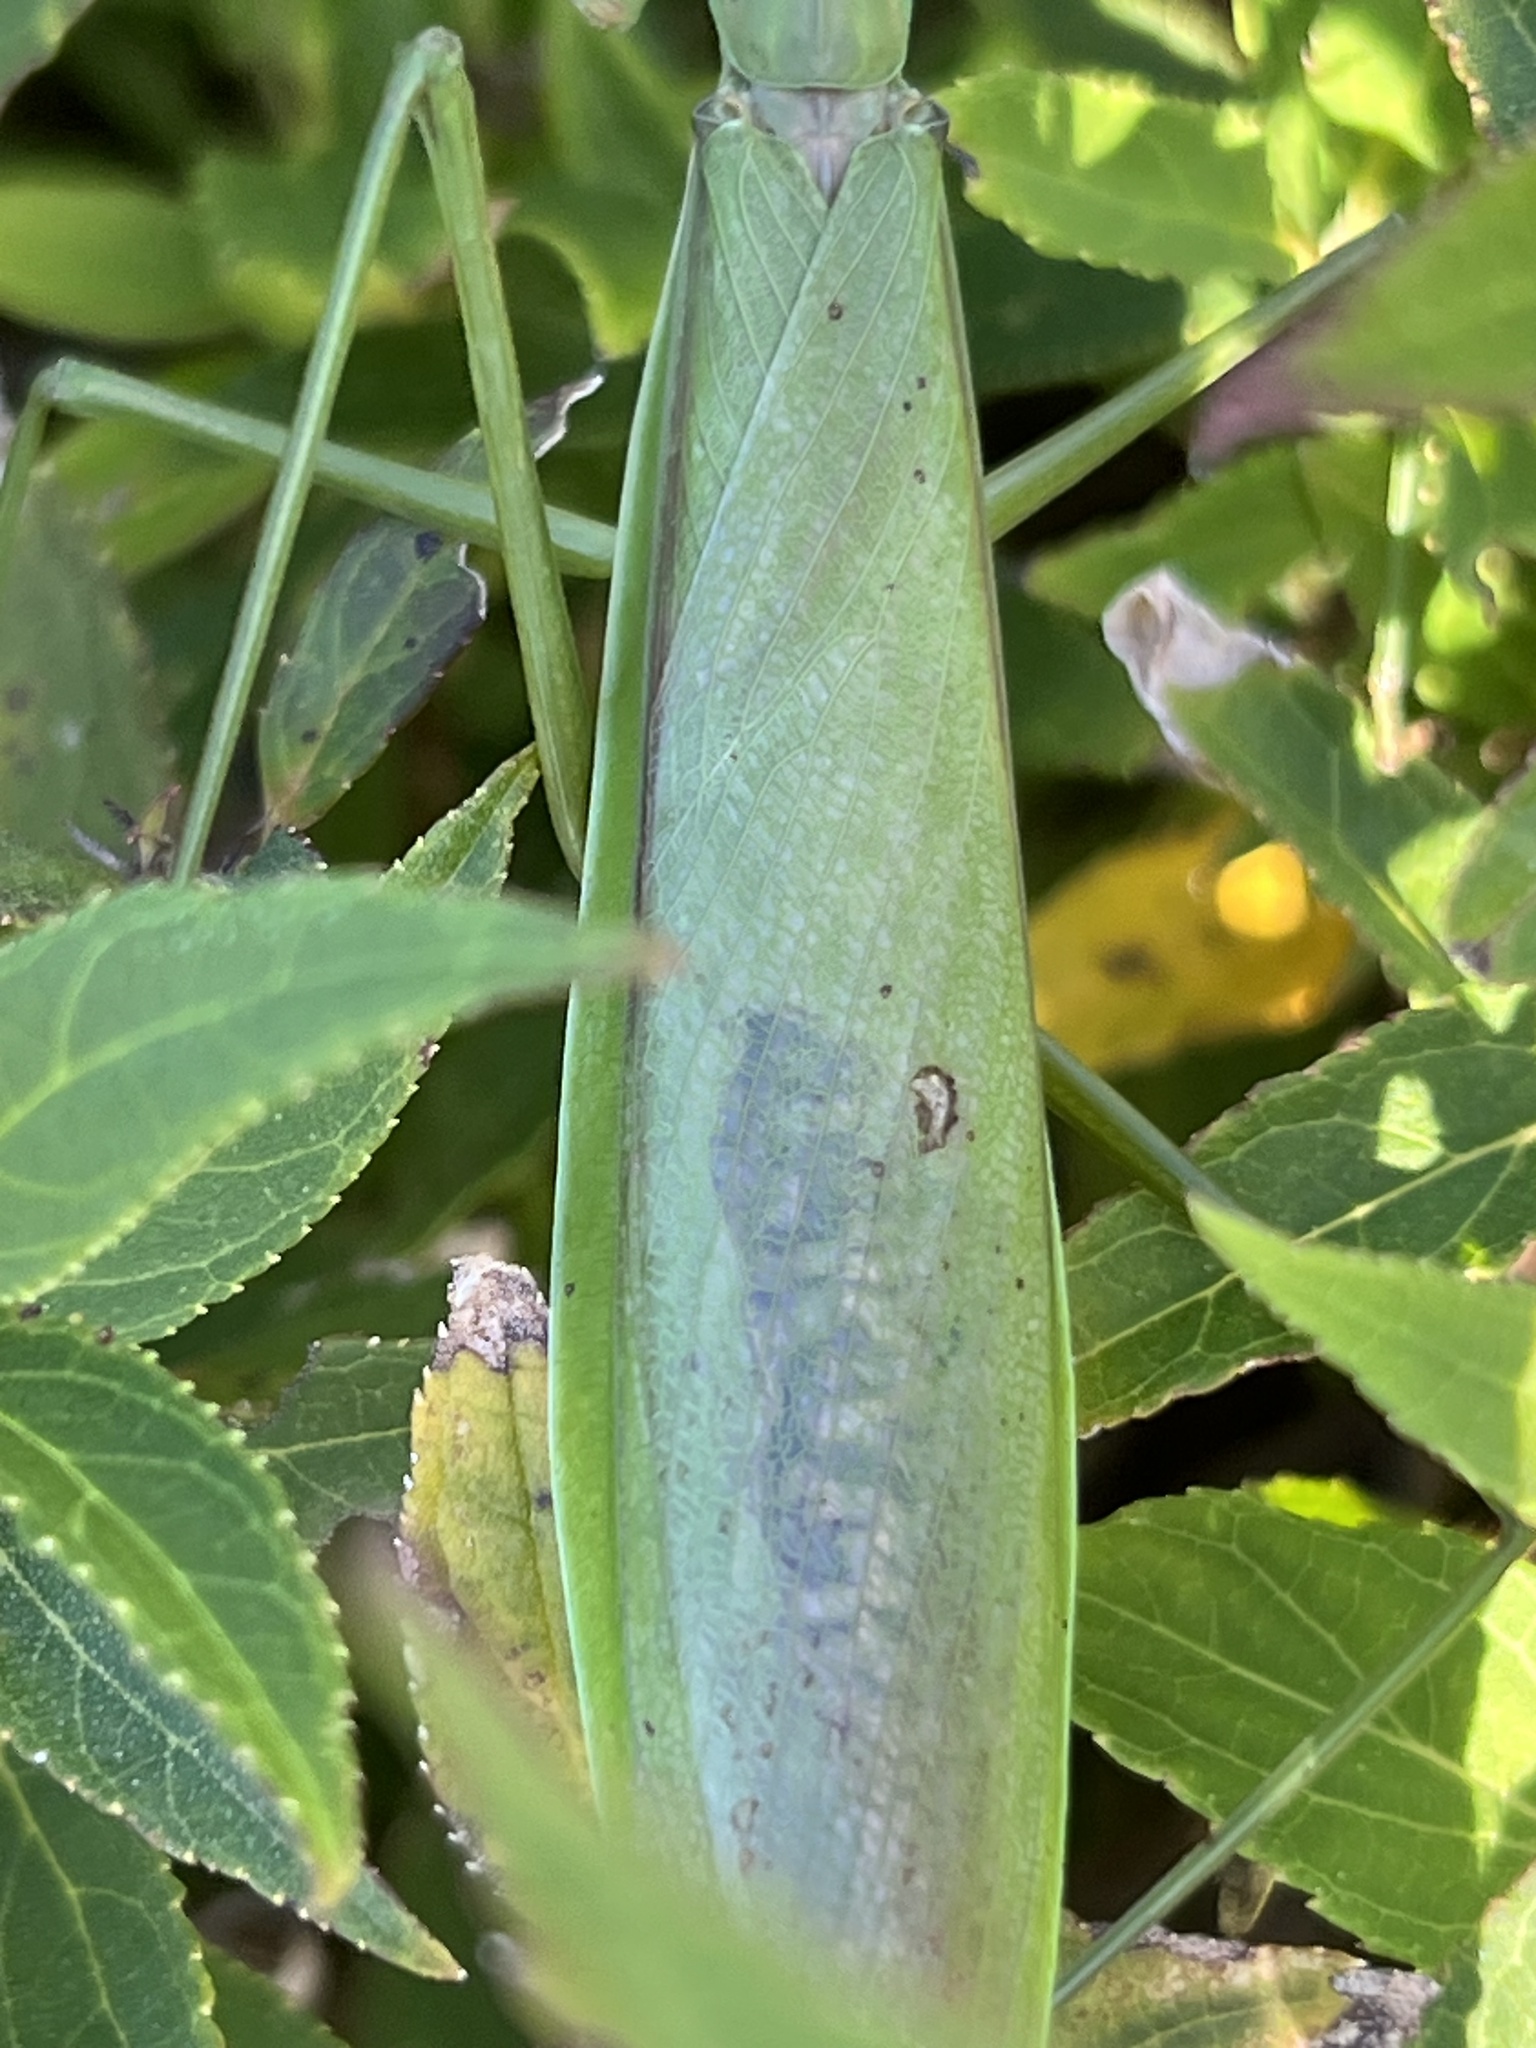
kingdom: Animalia
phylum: Arthropoda
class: Insecta
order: Mantodea
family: Mantidae
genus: Tenodera
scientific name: Tenodera sinensis
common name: Chinese mantis
